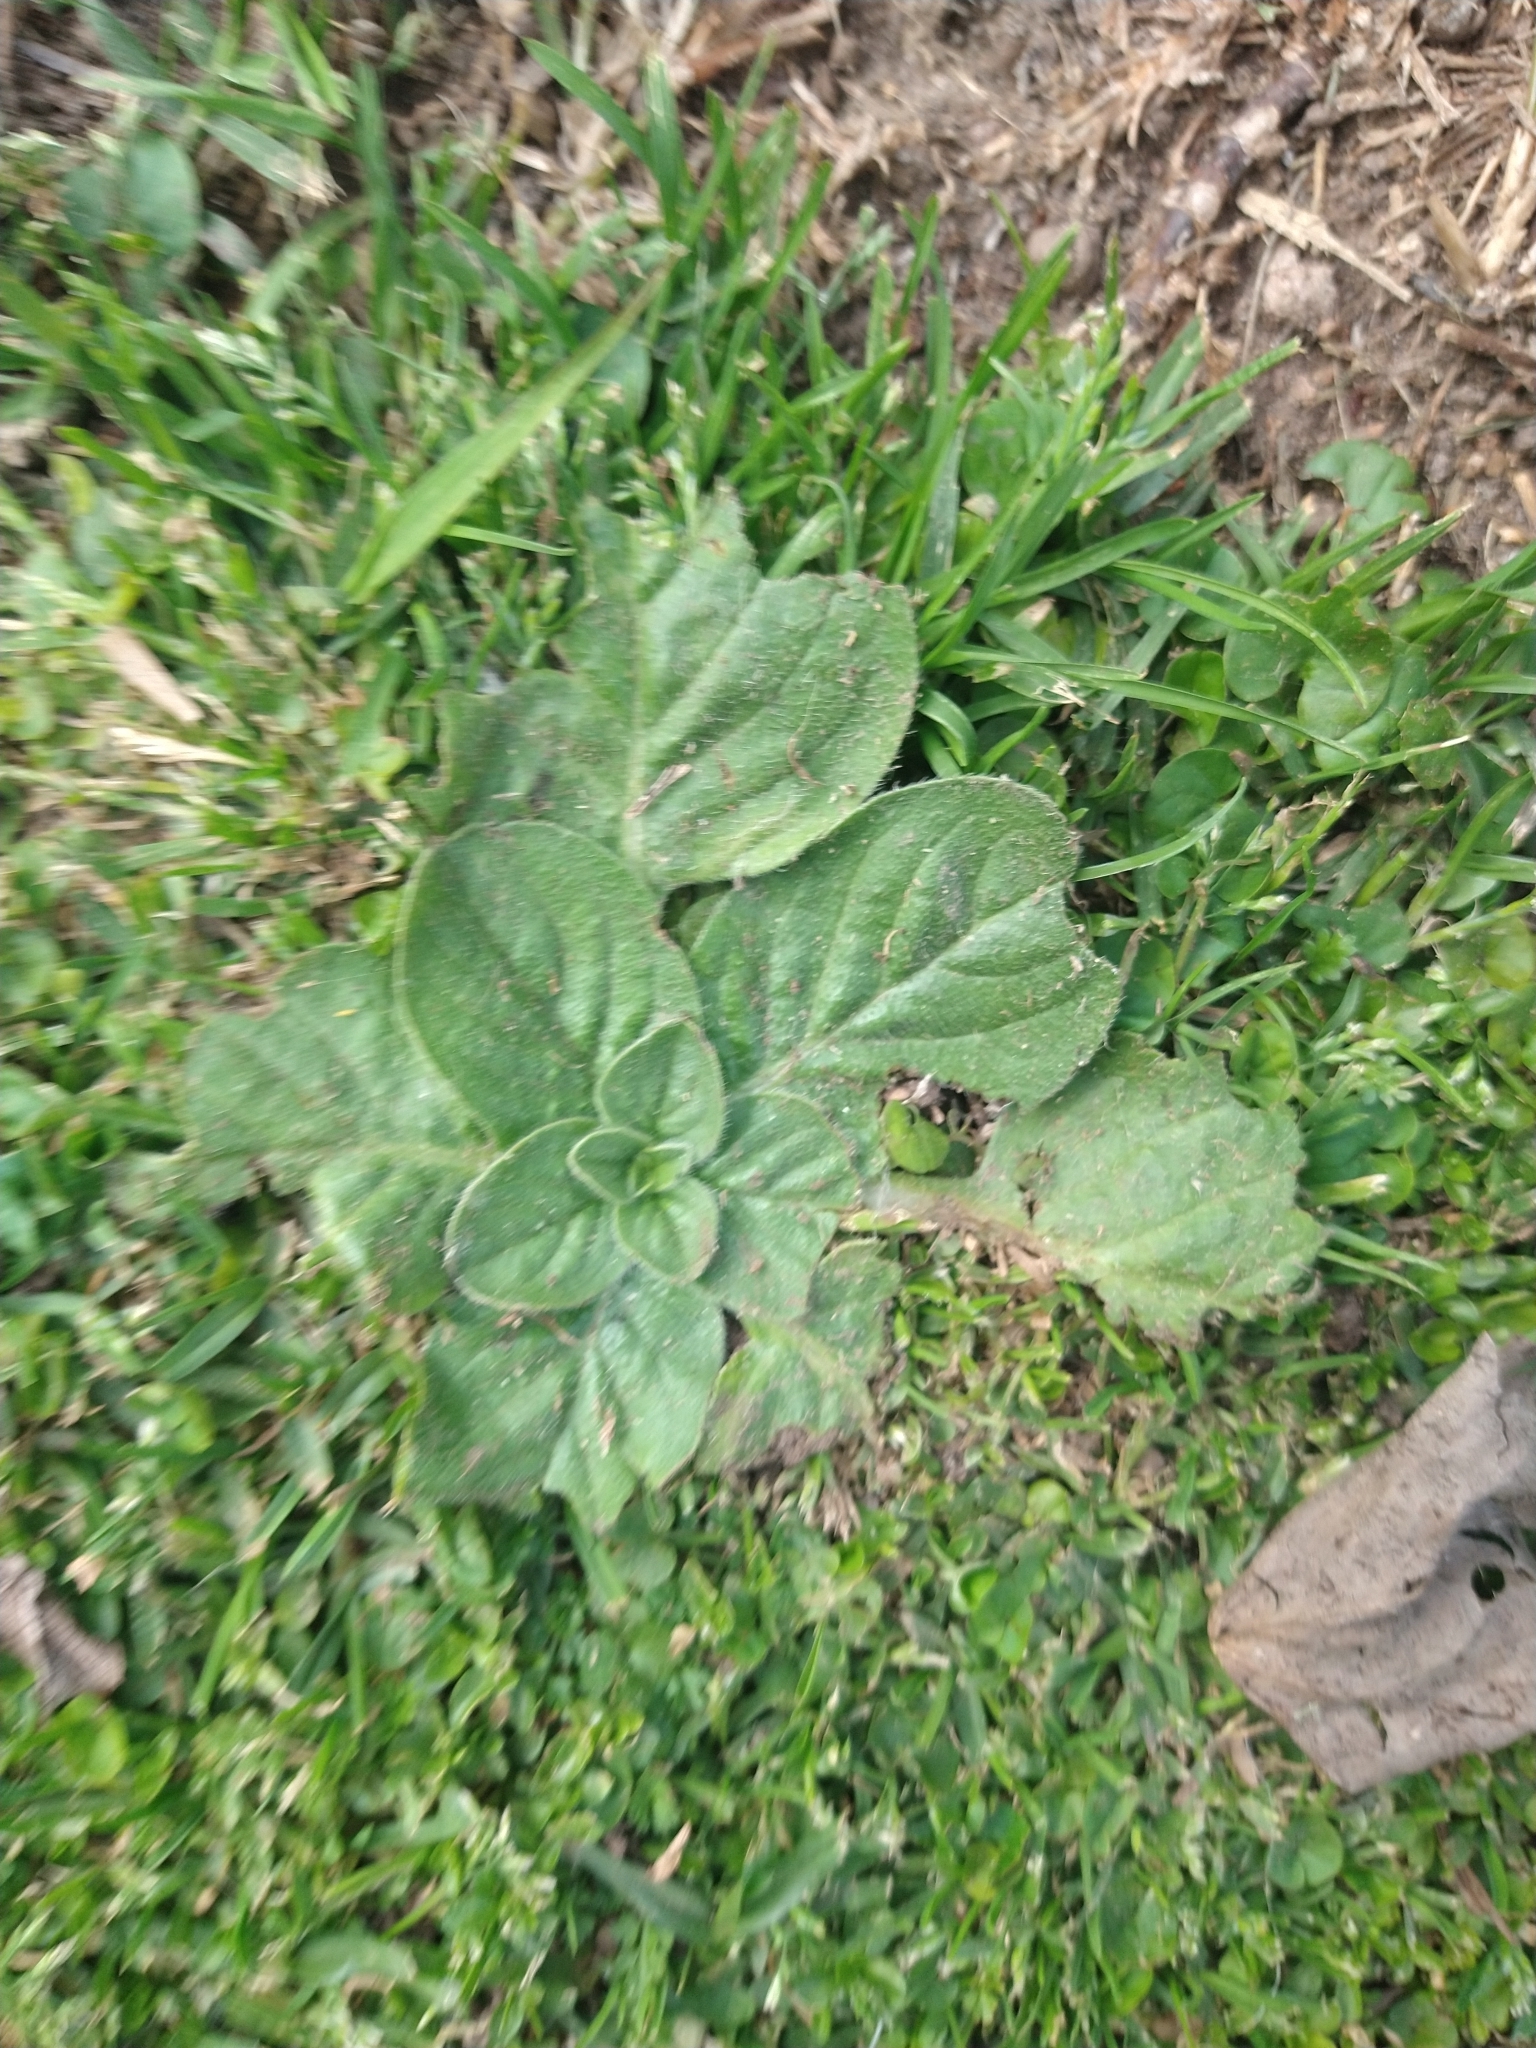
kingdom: Plantae
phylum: Tracheophyta
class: Magnoliopsida
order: Boraginales
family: Boraginaceae
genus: Echium
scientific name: Echium plantagineum
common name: Purple viper's-bugloss
